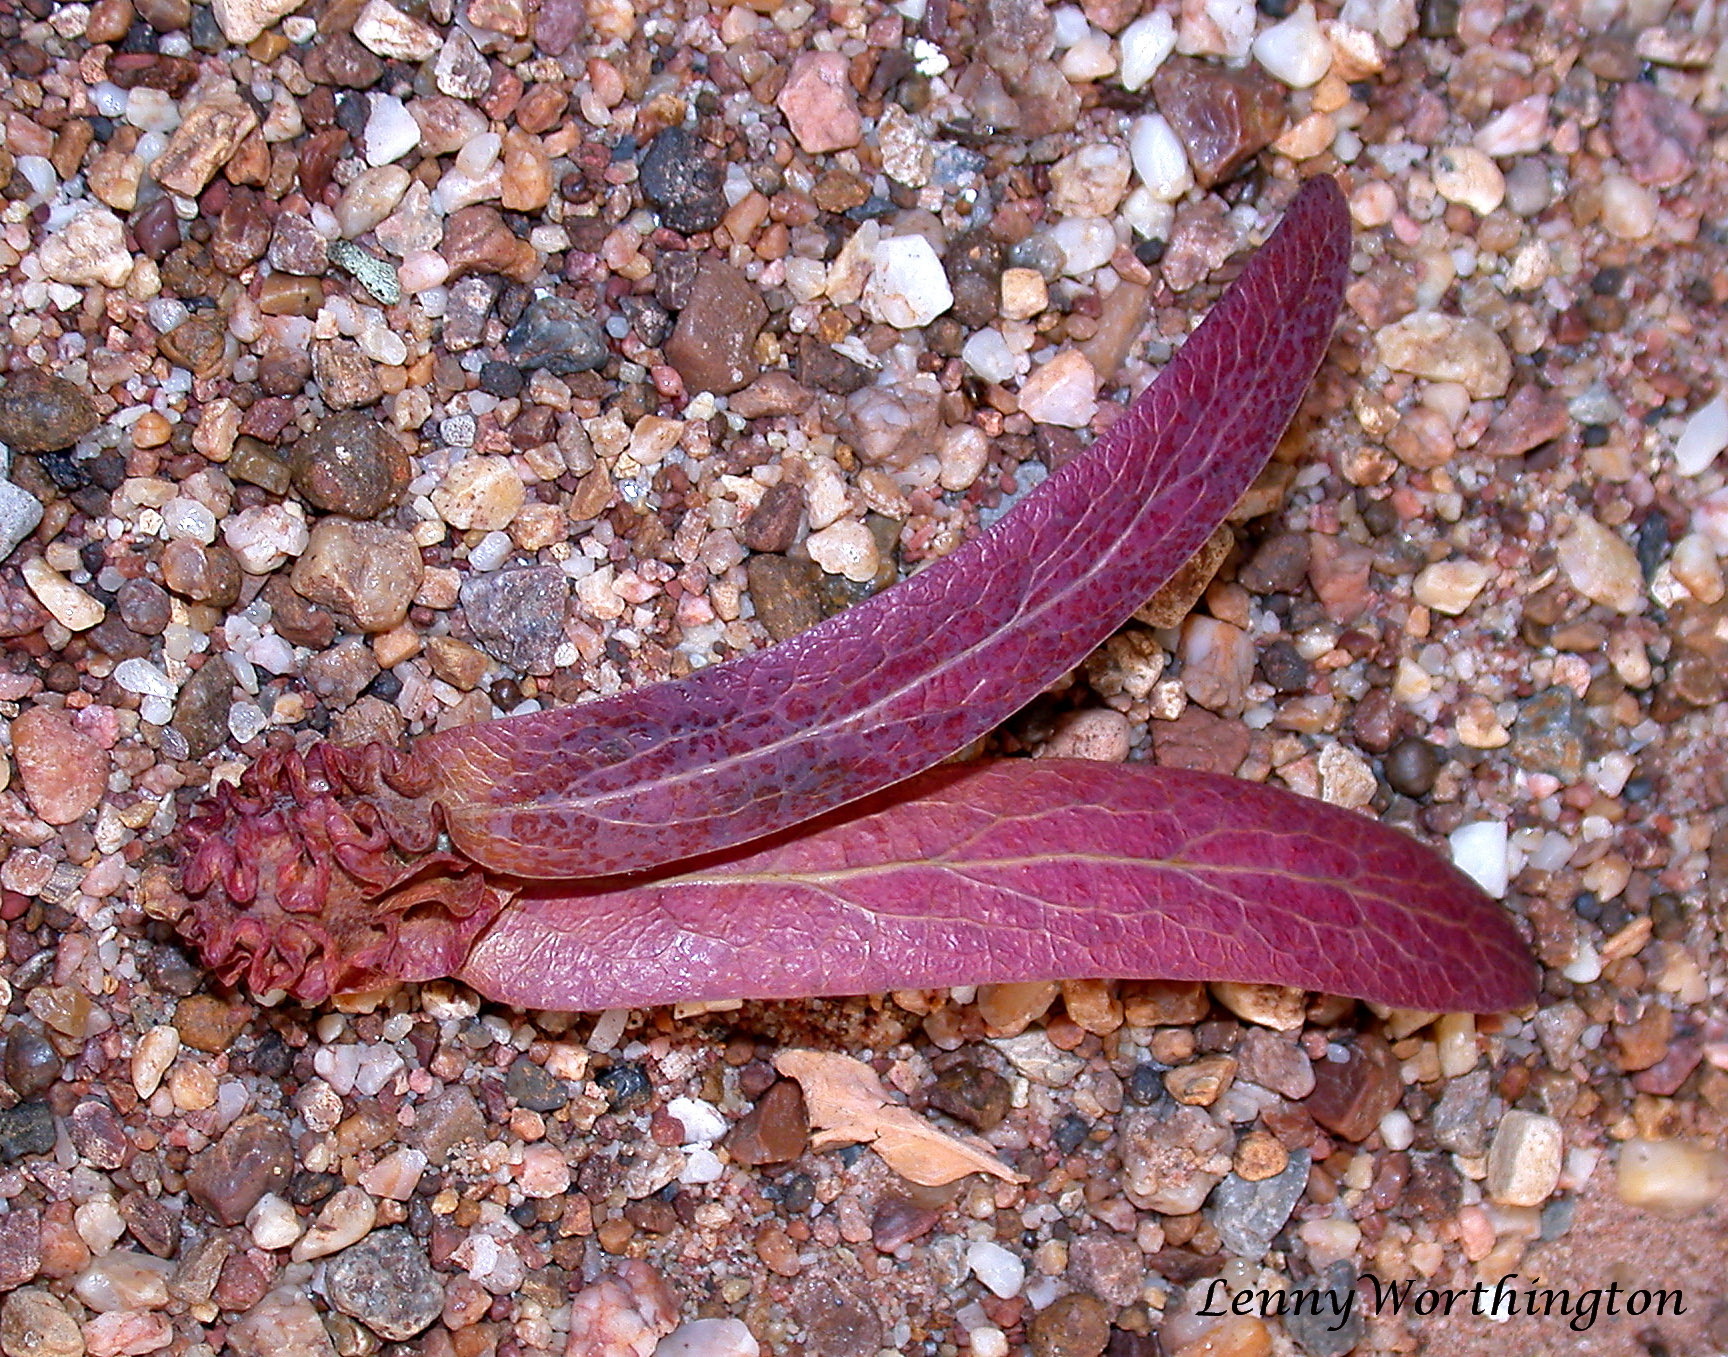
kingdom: Plantae
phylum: Tracheophyta
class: Magnoliopsida
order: Malvales
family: Dipterocarpaceae
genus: Dipterocarpus
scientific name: Dipterocarpus intricatus
